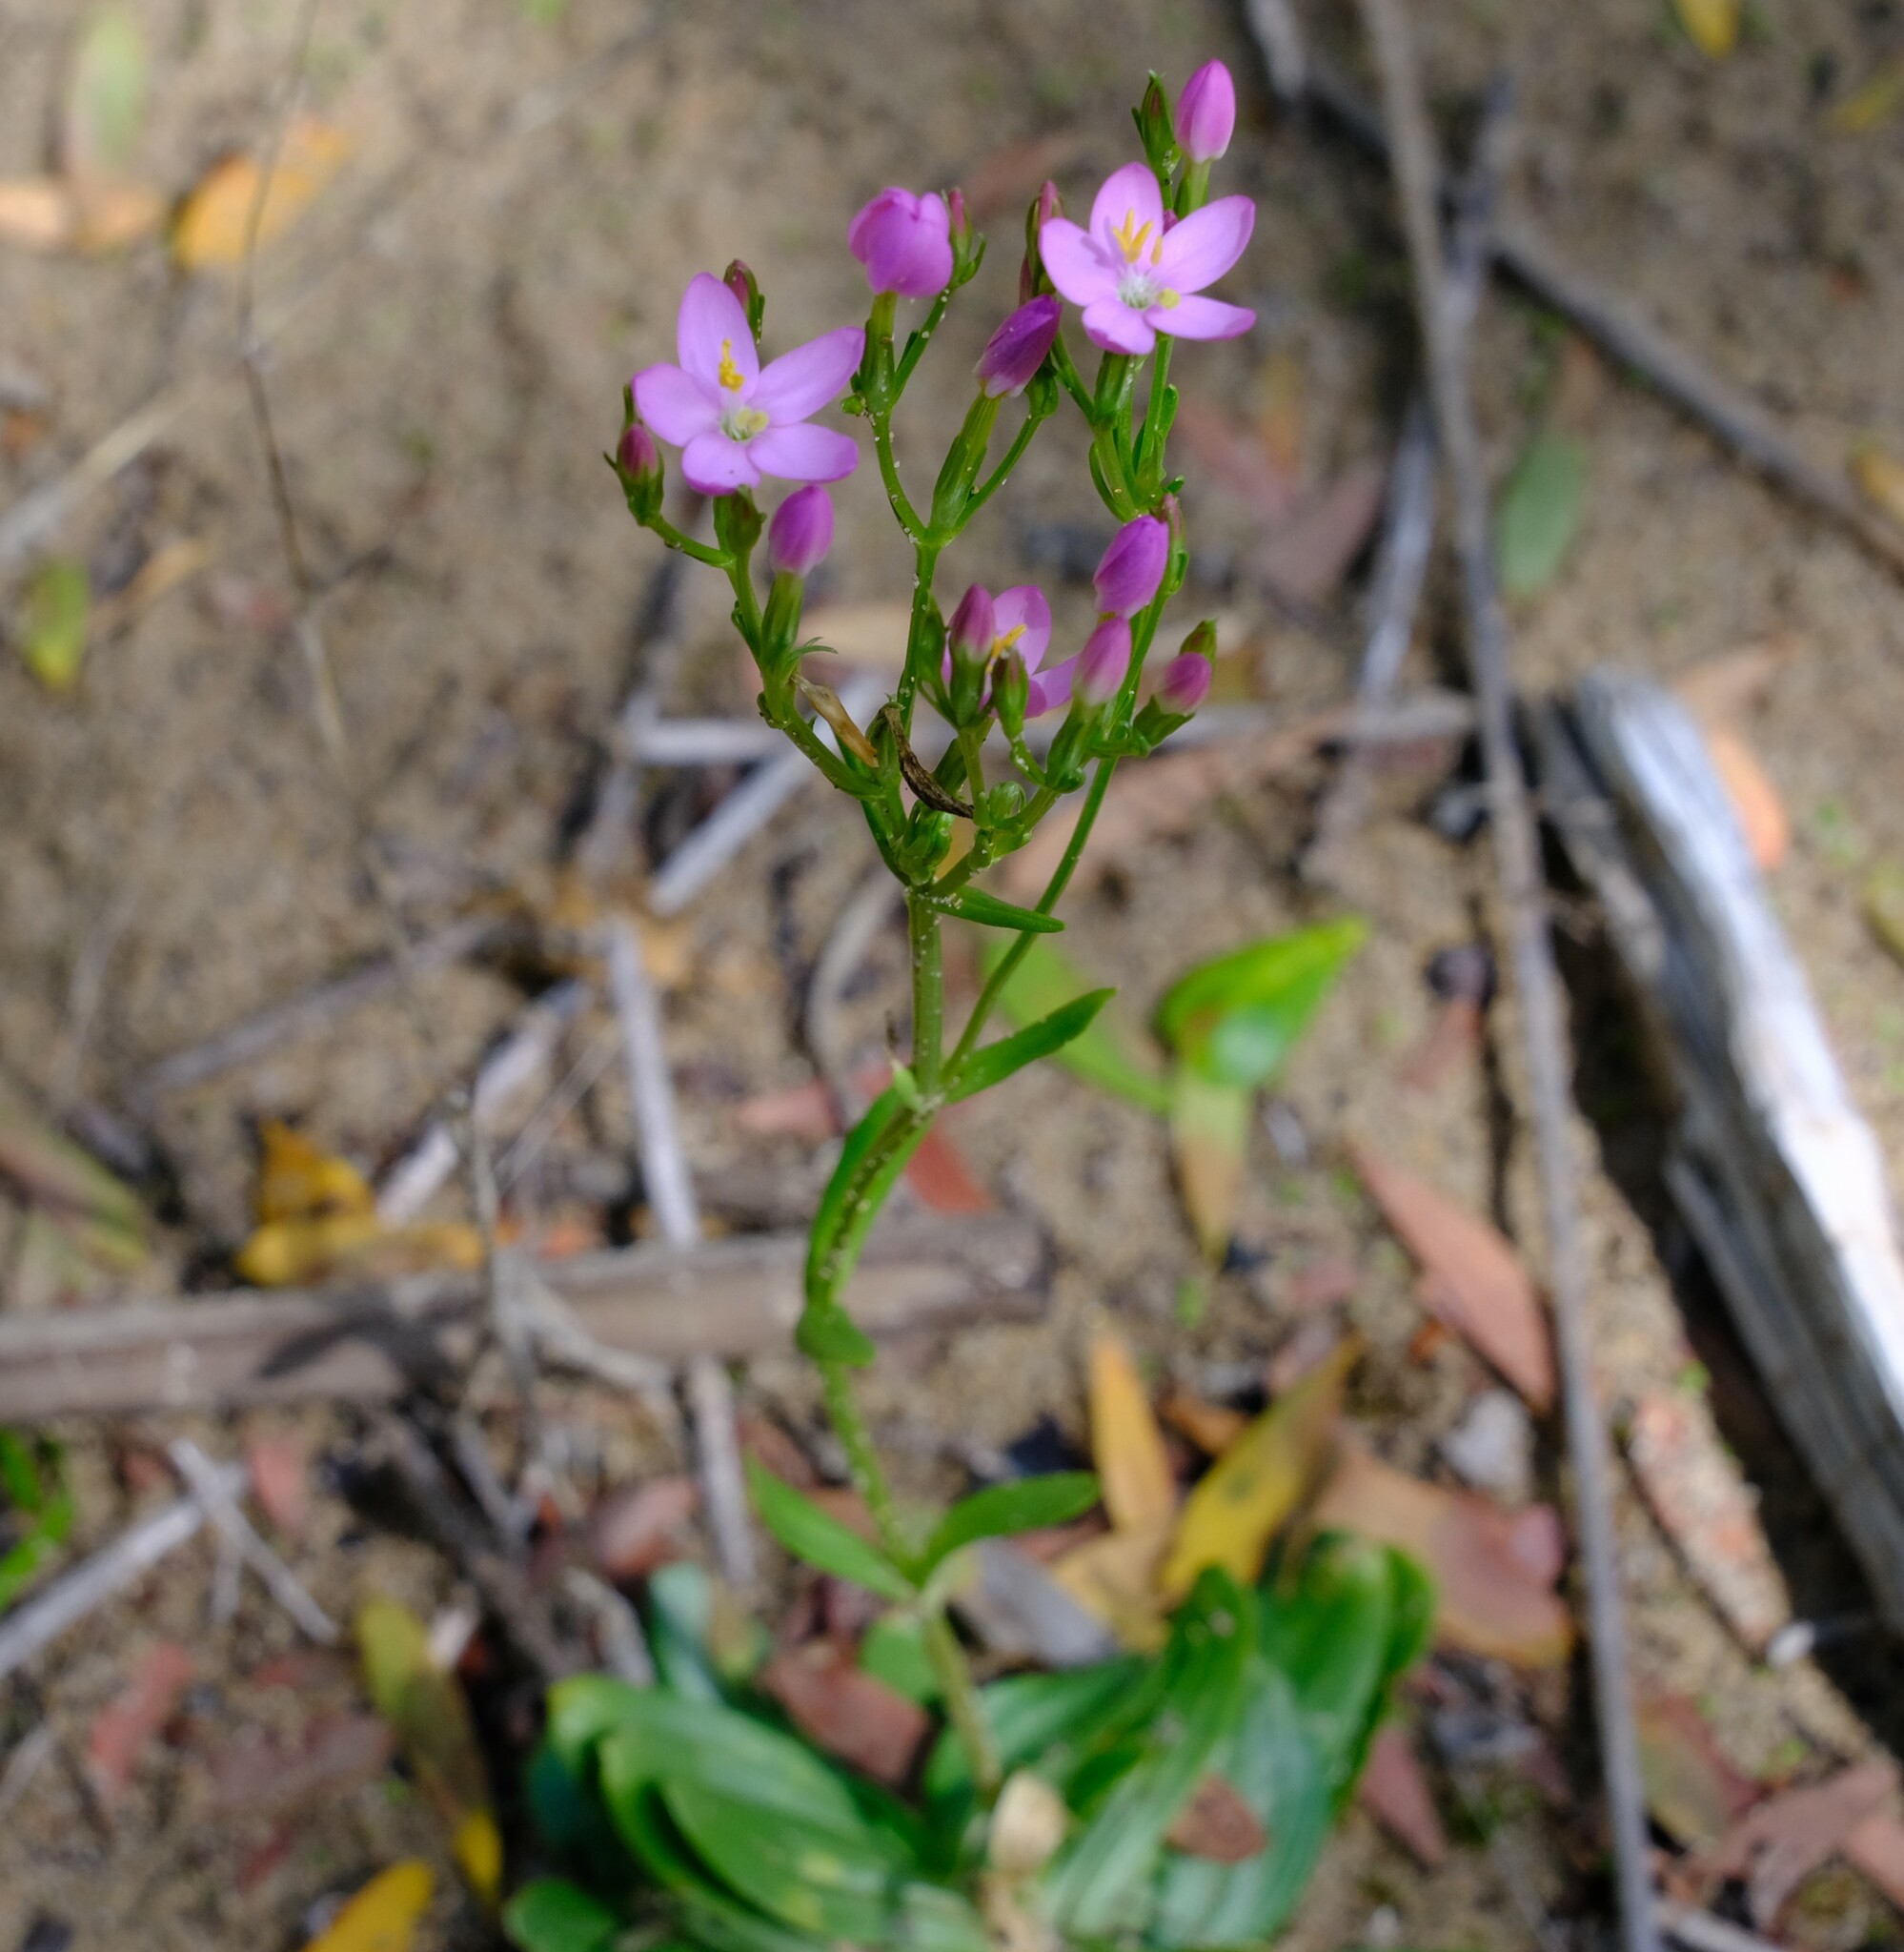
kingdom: Plantae
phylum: Tracheophyta
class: Magnoliopsida
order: Gentianales
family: Gentianaceae
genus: Centaurium
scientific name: Centaurium erythraea
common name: Common centaury
